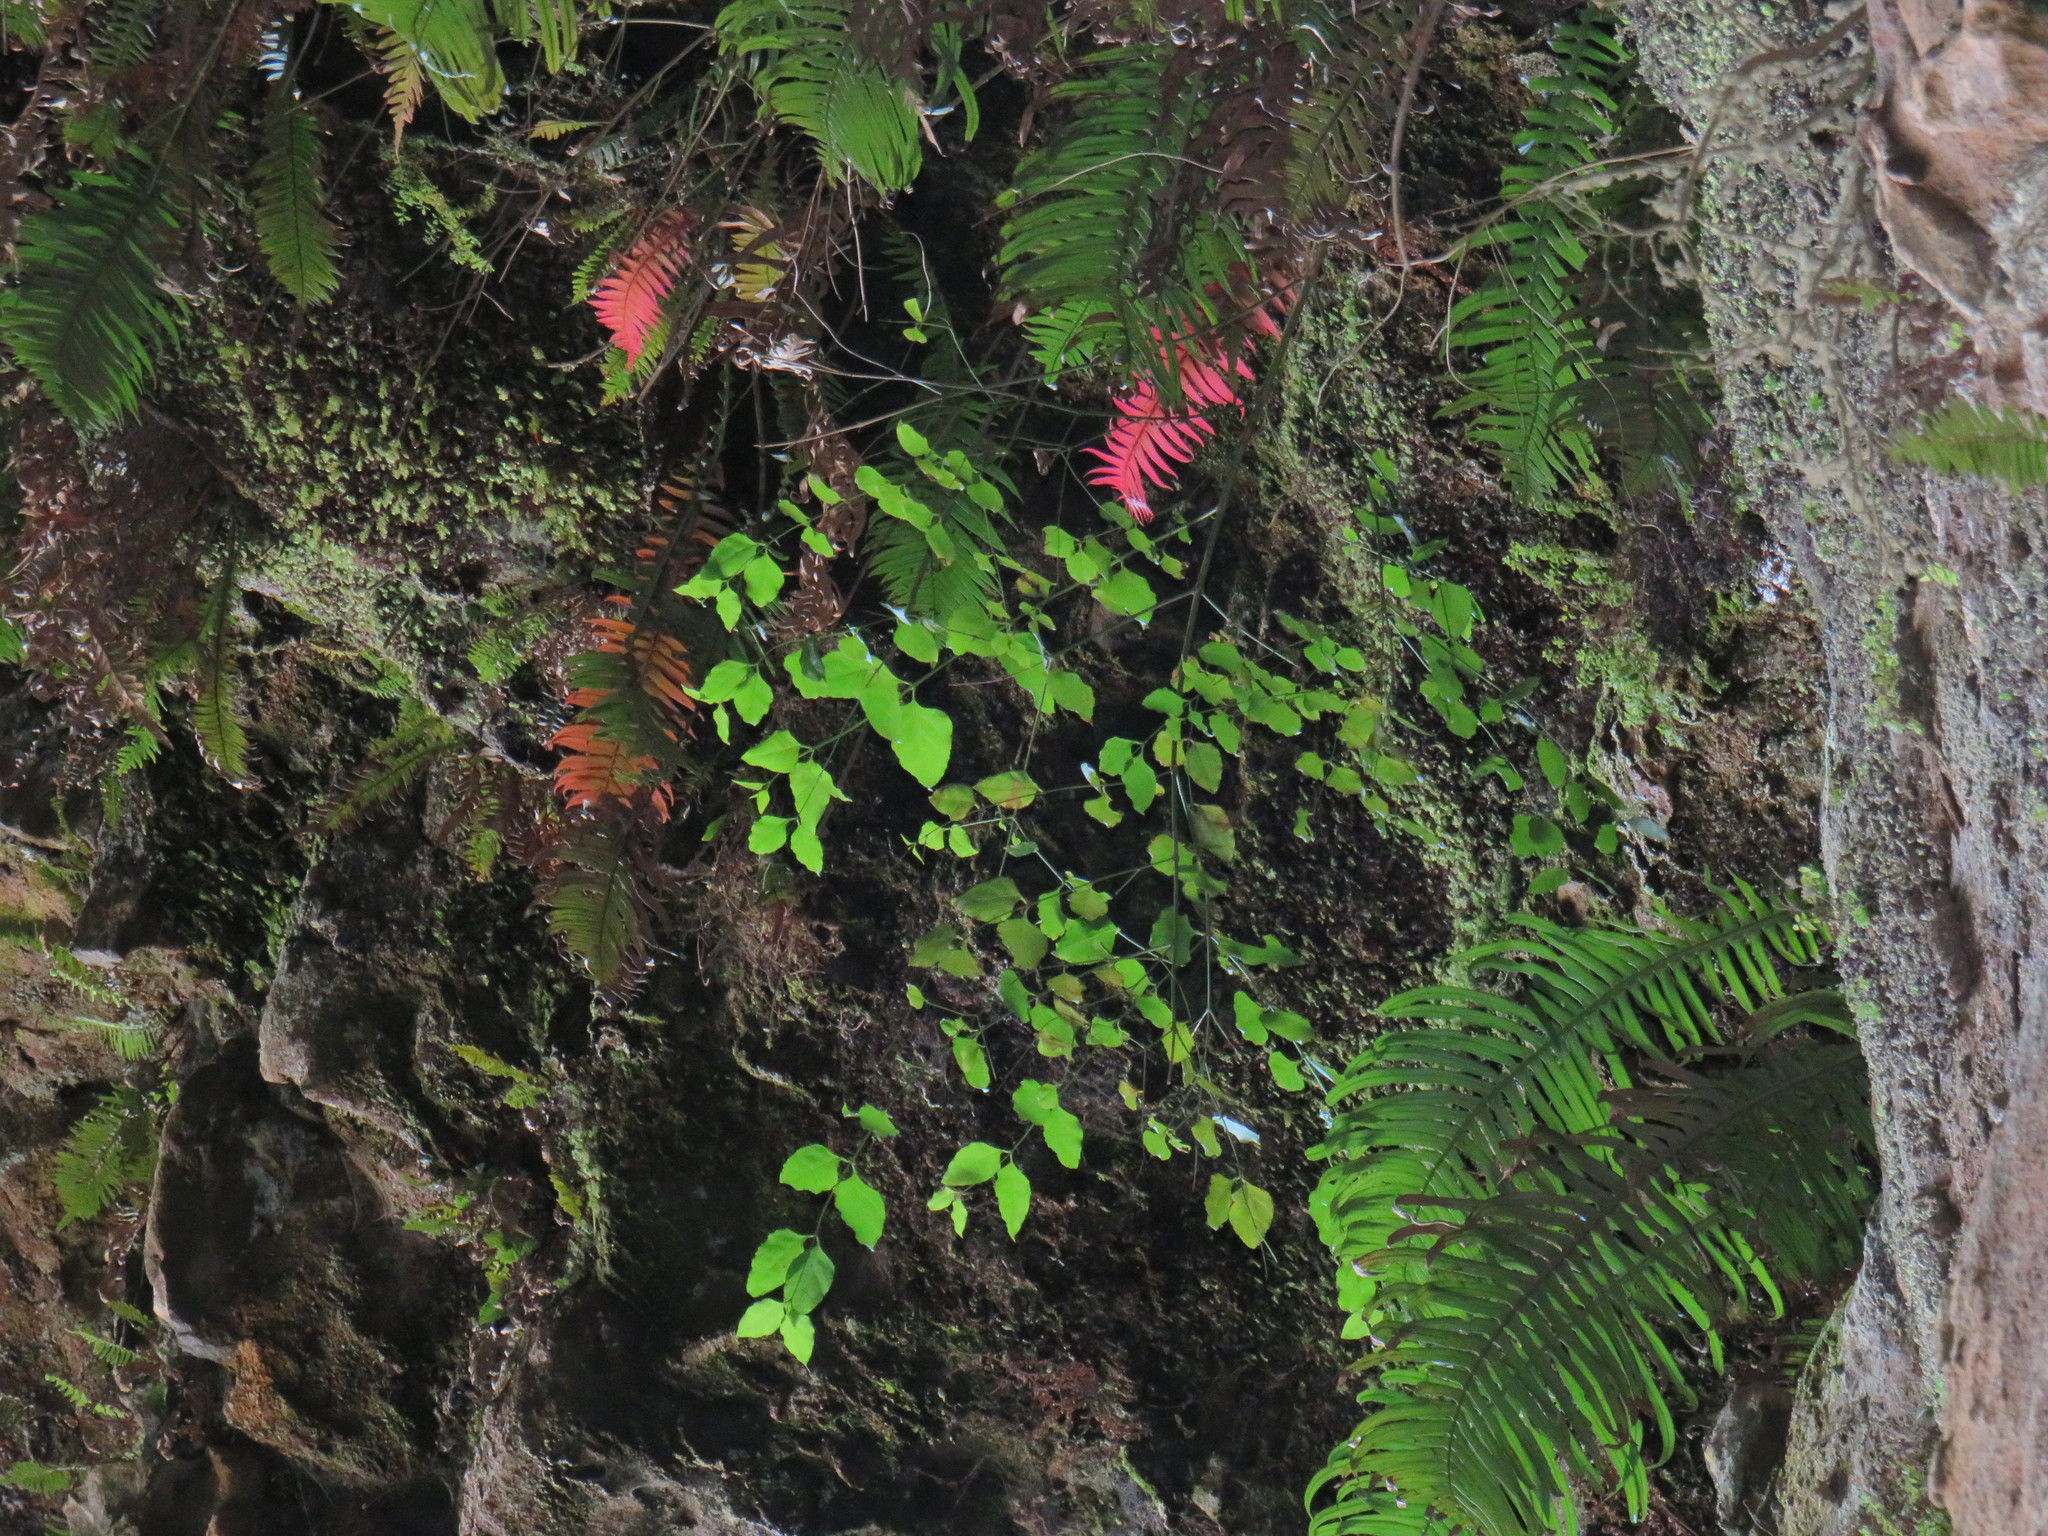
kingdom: Plantae
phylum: Tracheophyta
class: Magnoliopsida
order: Lamiales
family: Stilbaceae
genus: Halleria
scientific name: Halleria lucida
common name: Tree fuschia
